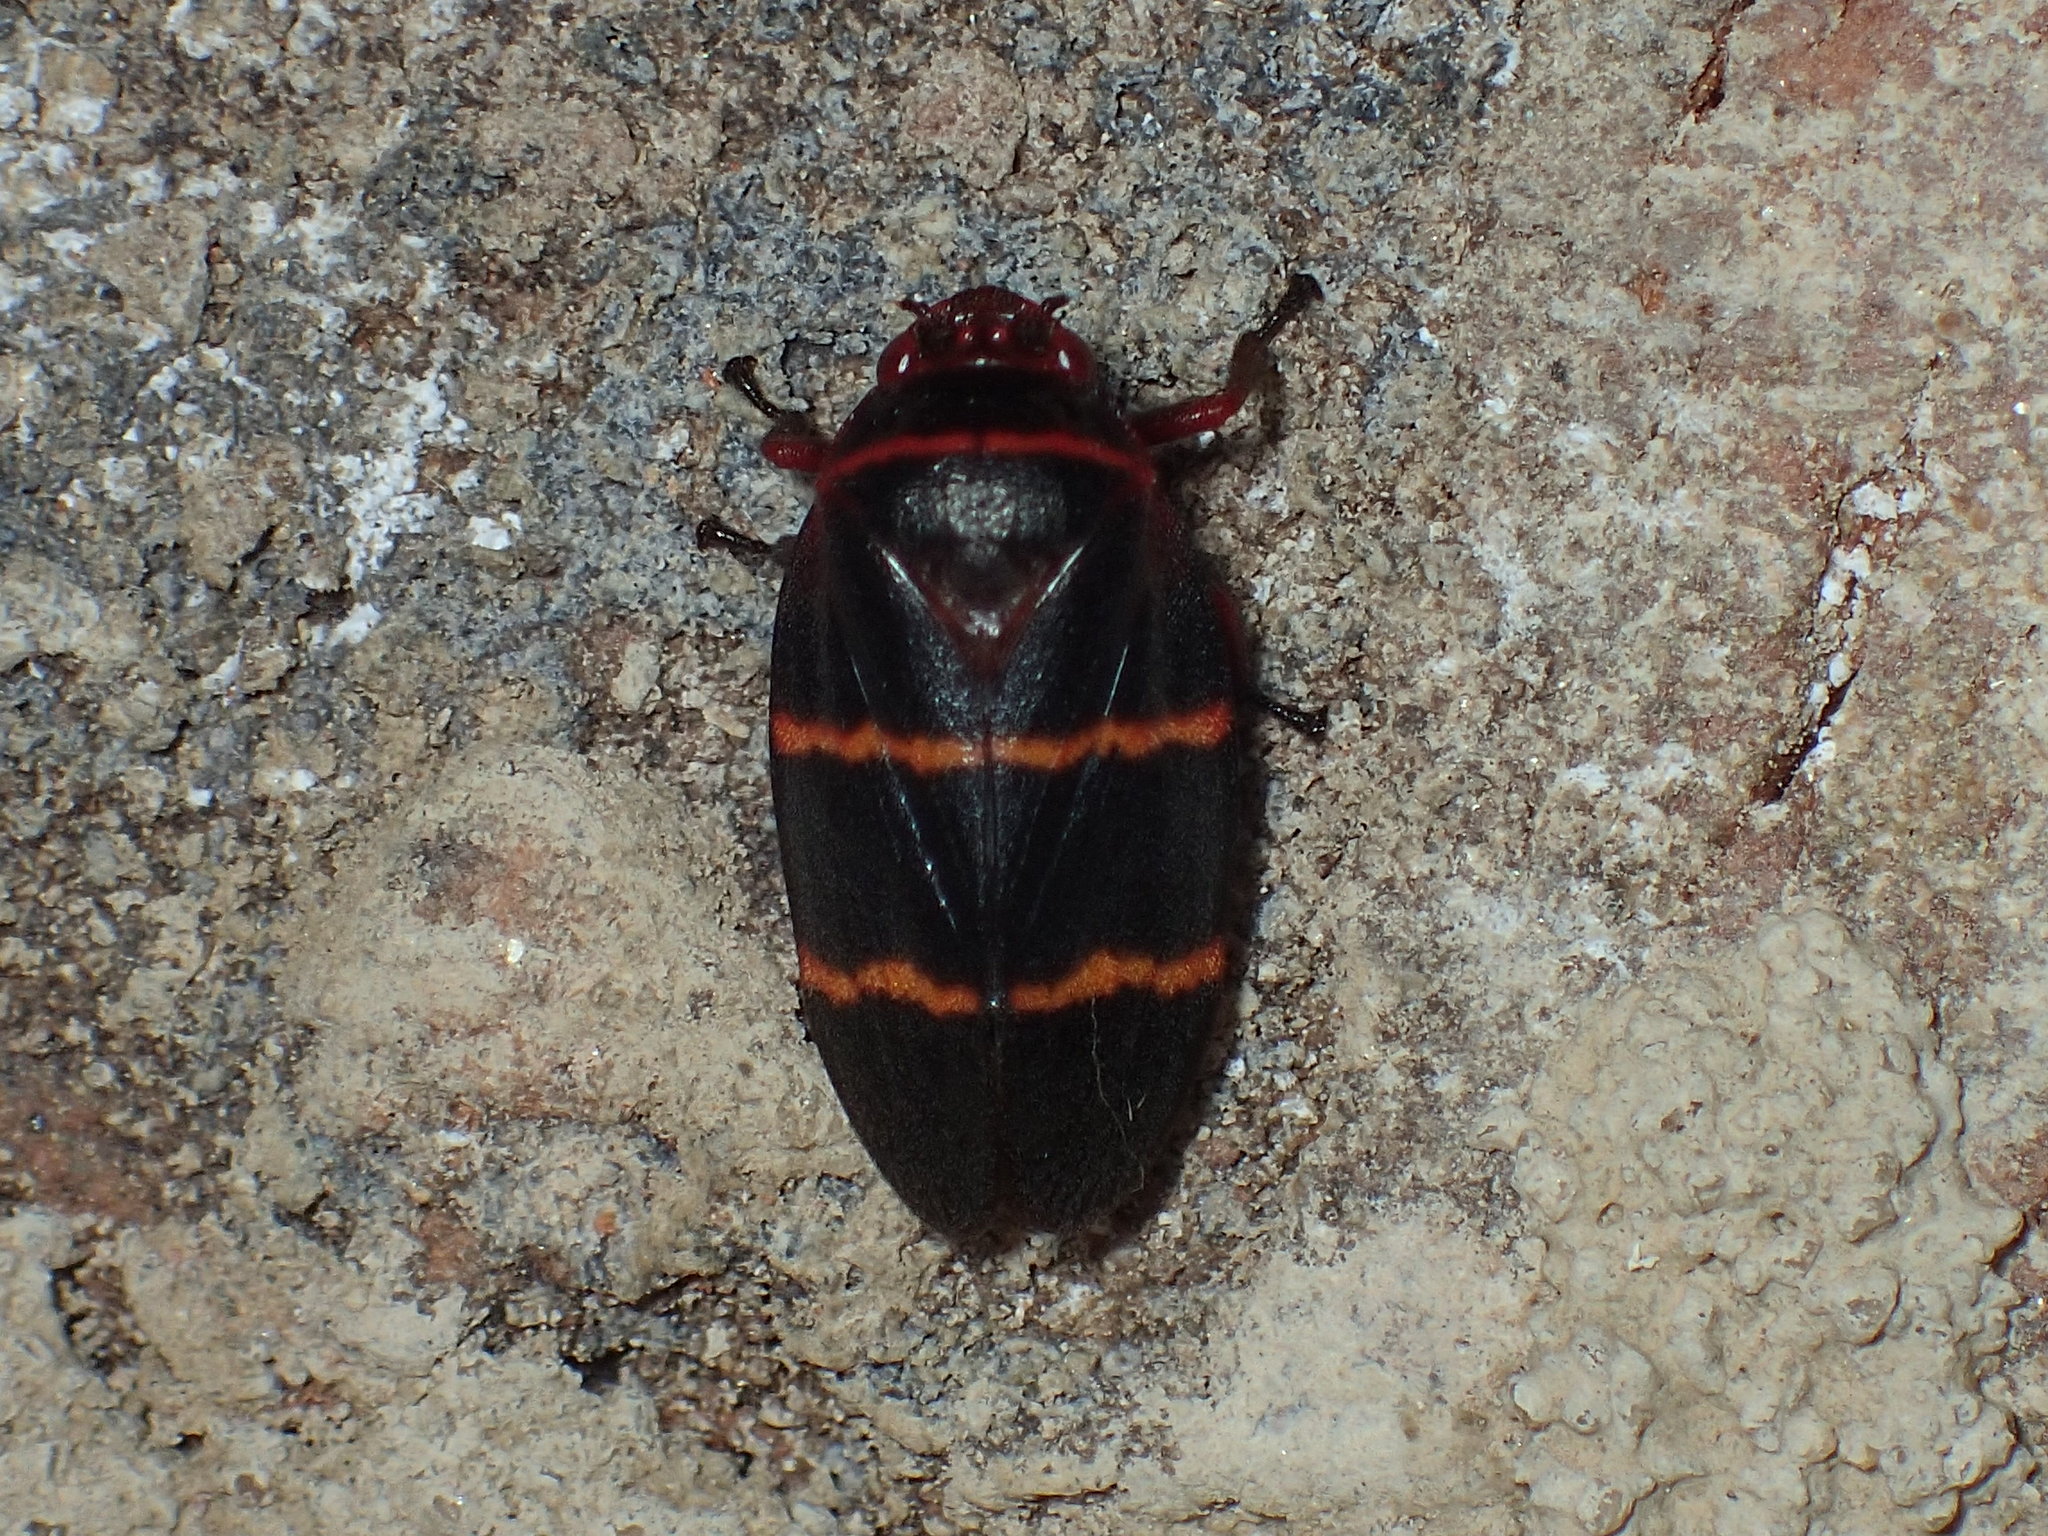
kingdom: Animalia
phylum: Arthropoda
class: Insecta
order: Hemiptera
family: Cercopidae
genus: Prosapia
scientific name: Prosapia bicincta
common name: Twolined spittlebug
